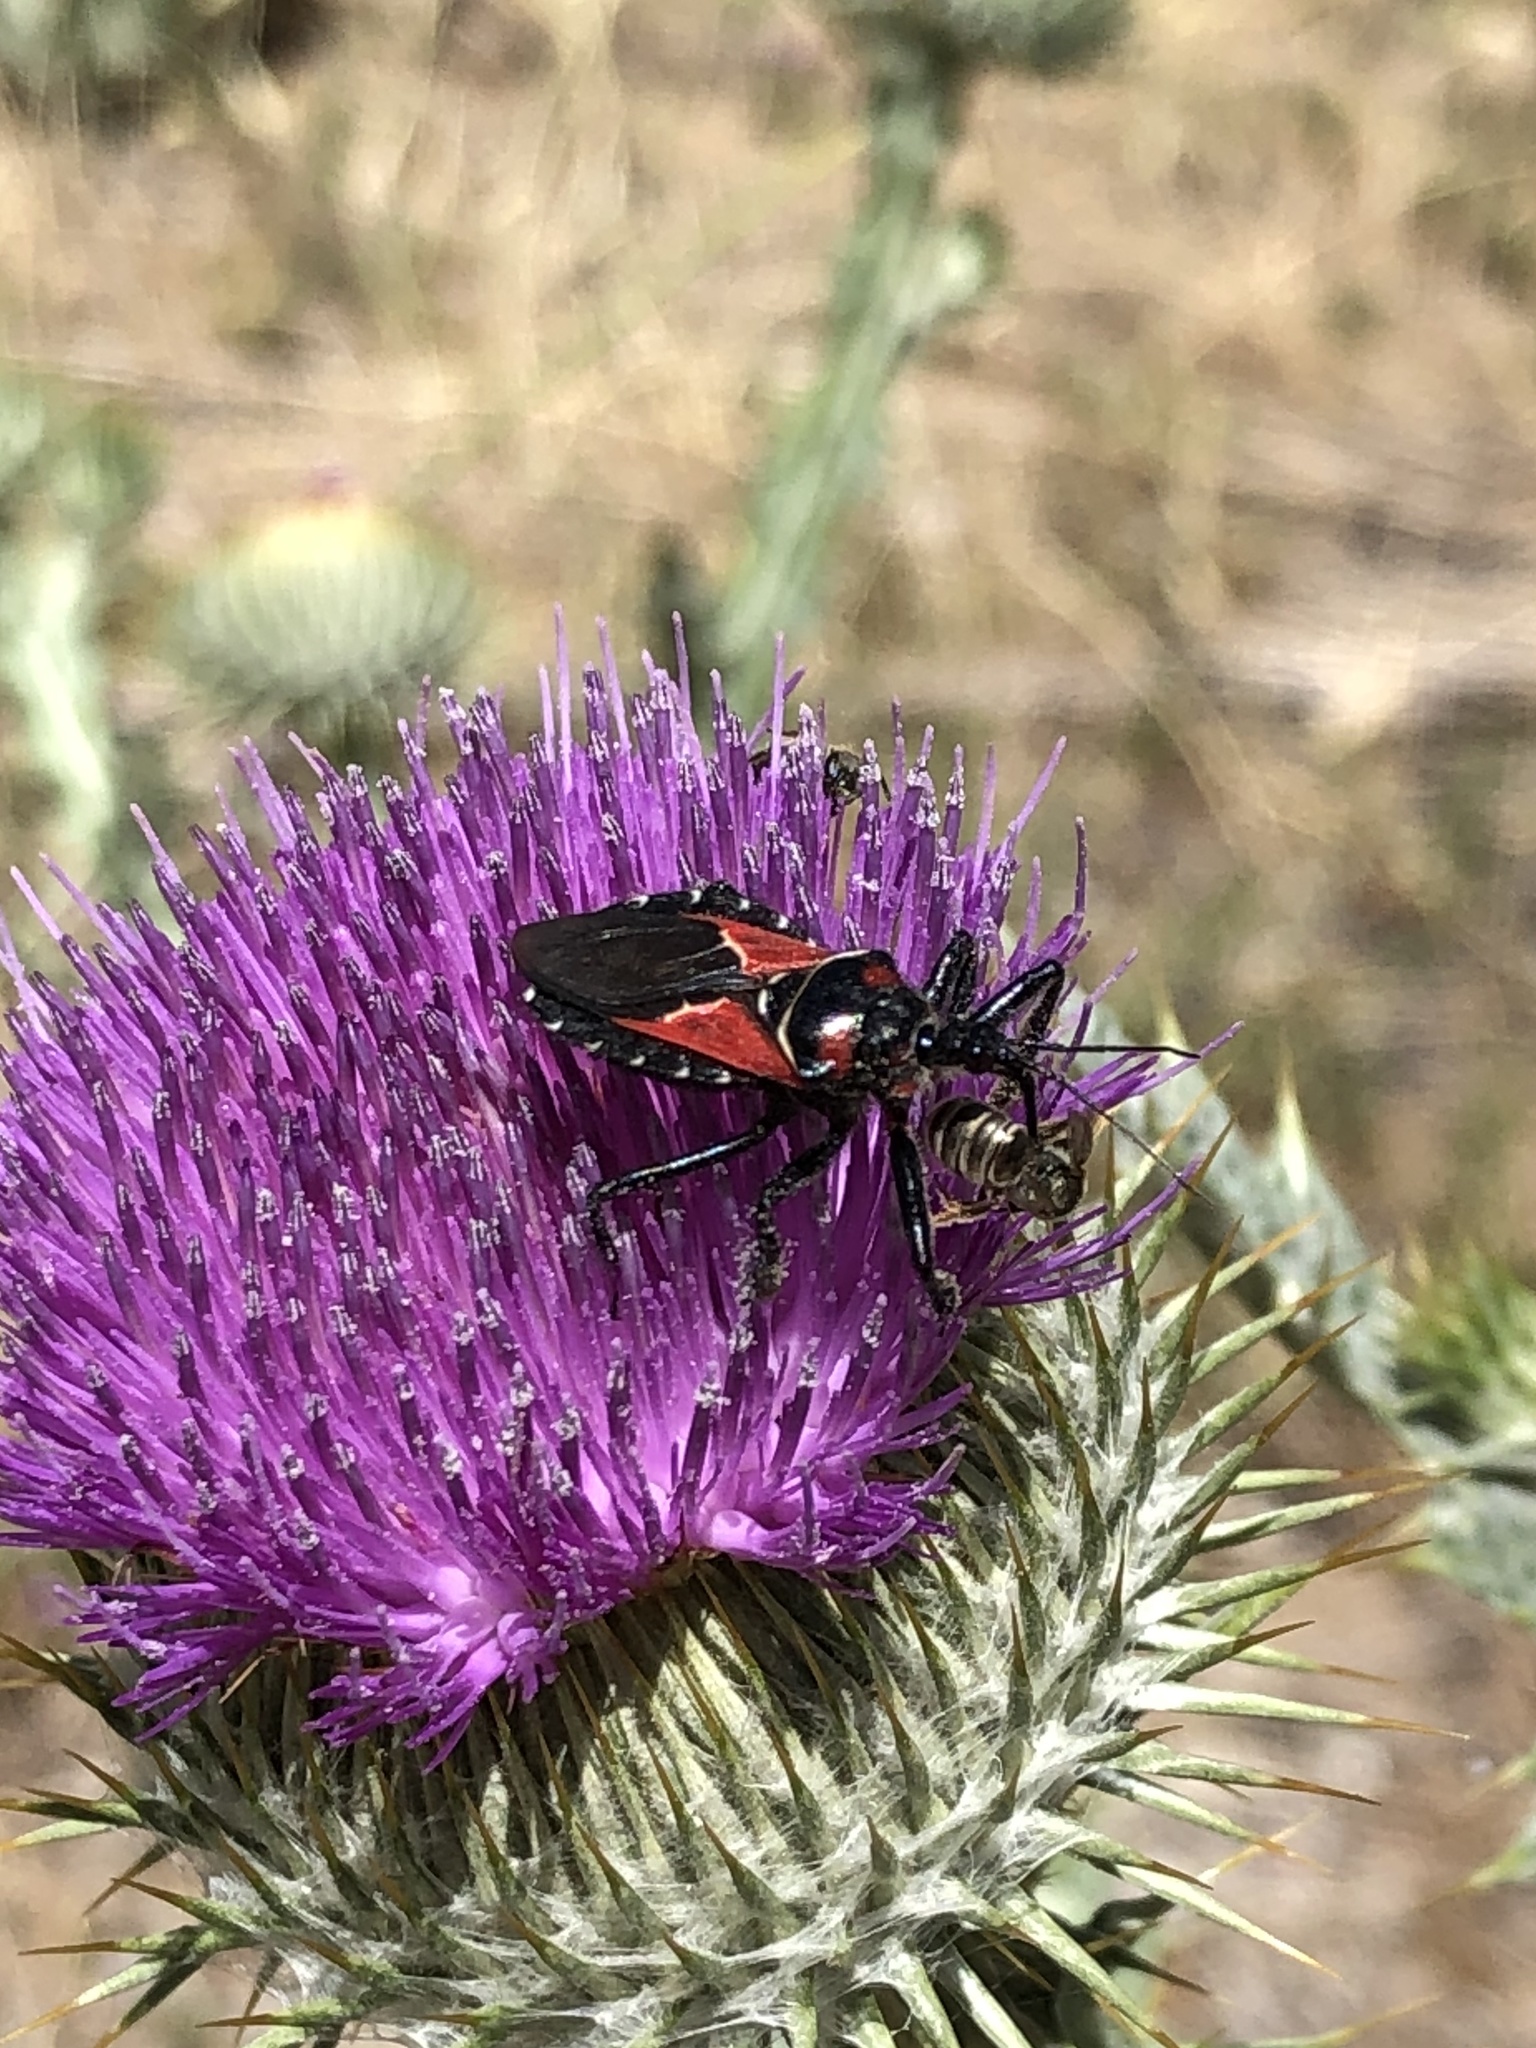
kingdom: Animalia
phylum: Arthropoda
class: Insecta
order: Hemiptera
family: Reduviidae
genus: Apiomerus
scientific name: Apiomerus montanus
